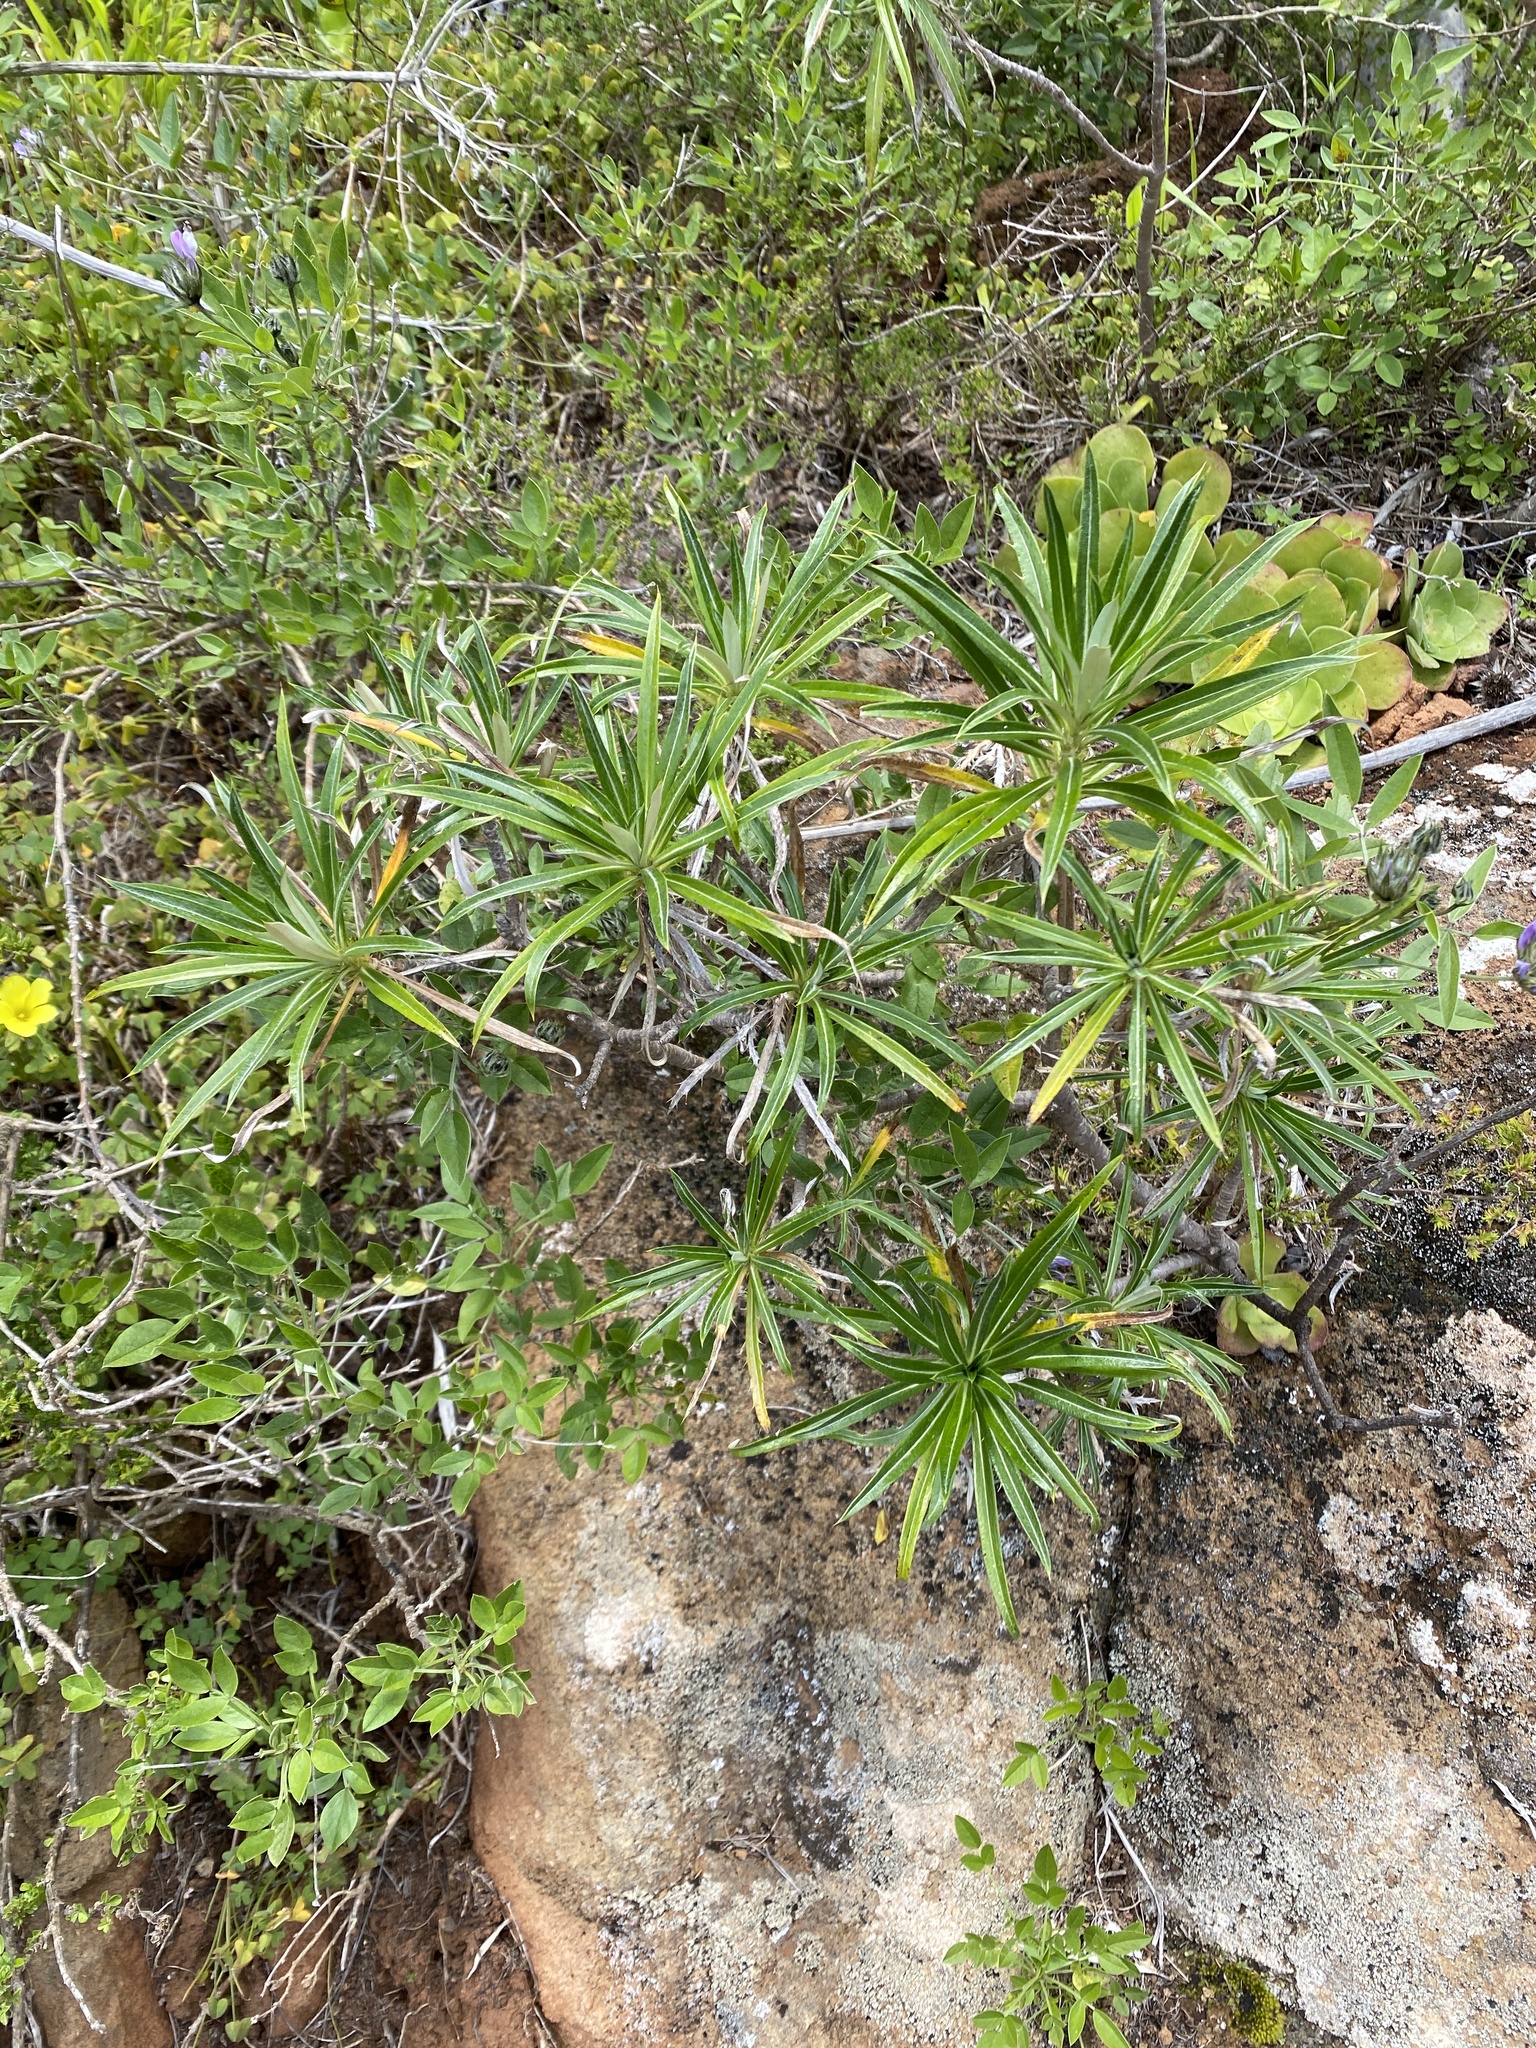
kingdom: Plantae
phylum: Tracheophyta
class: Magnoliopsida
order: Asterales
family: Asteraceae
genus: Carlina
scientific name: Carlina salicifolia
